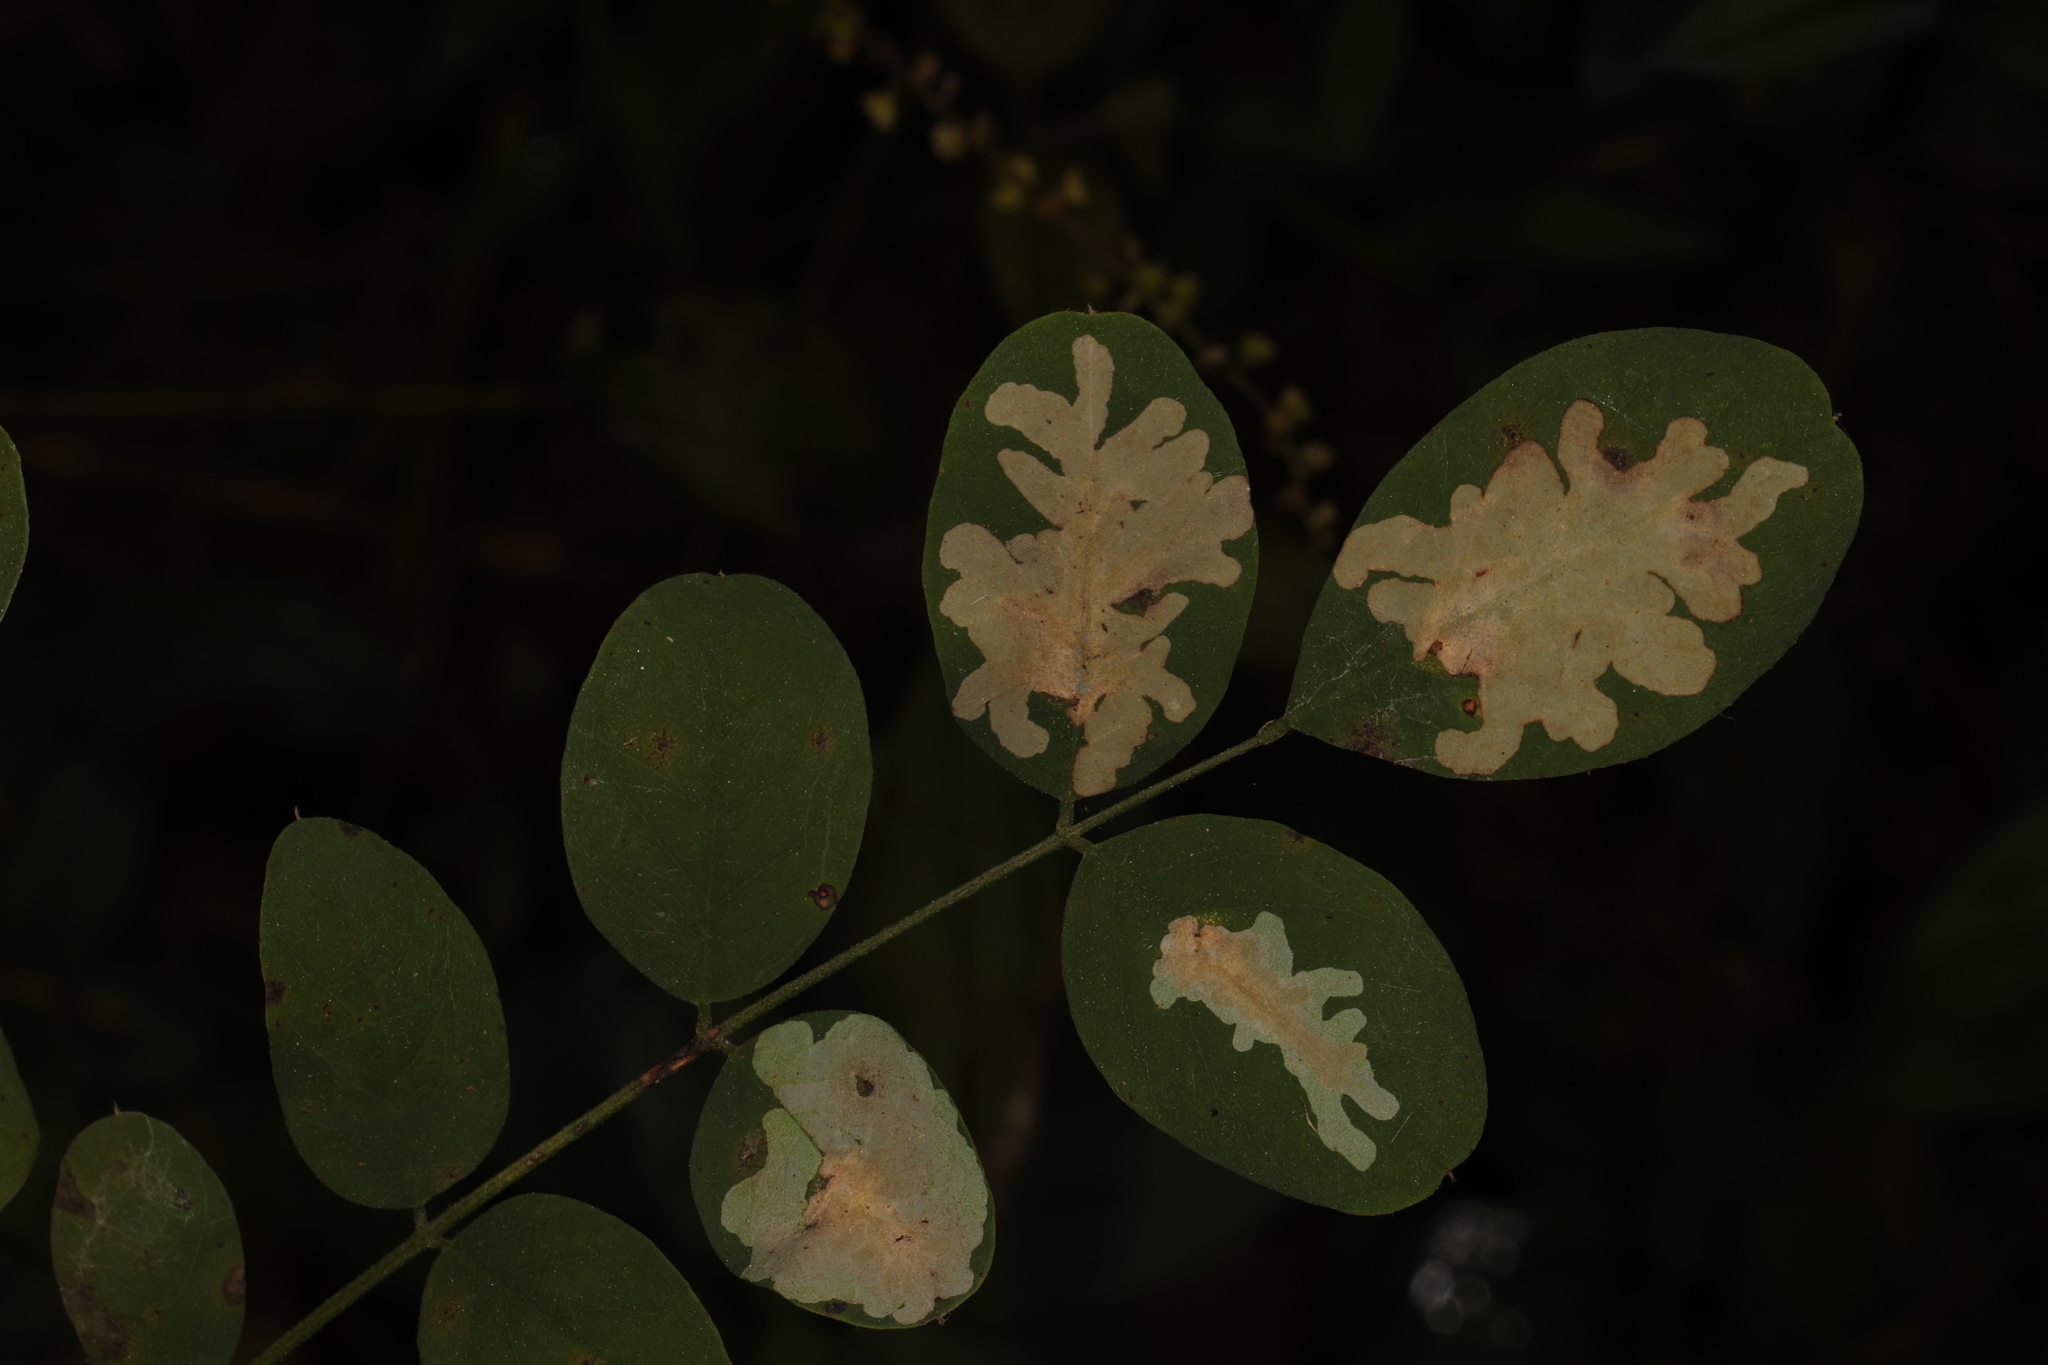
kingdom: Animalia
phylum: Arthropoda
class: Insecta
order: Lepidoptera
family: Gracillariidae
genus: Parectopa
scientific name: Parectopa robiniella
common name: Locust digitate leafminer
